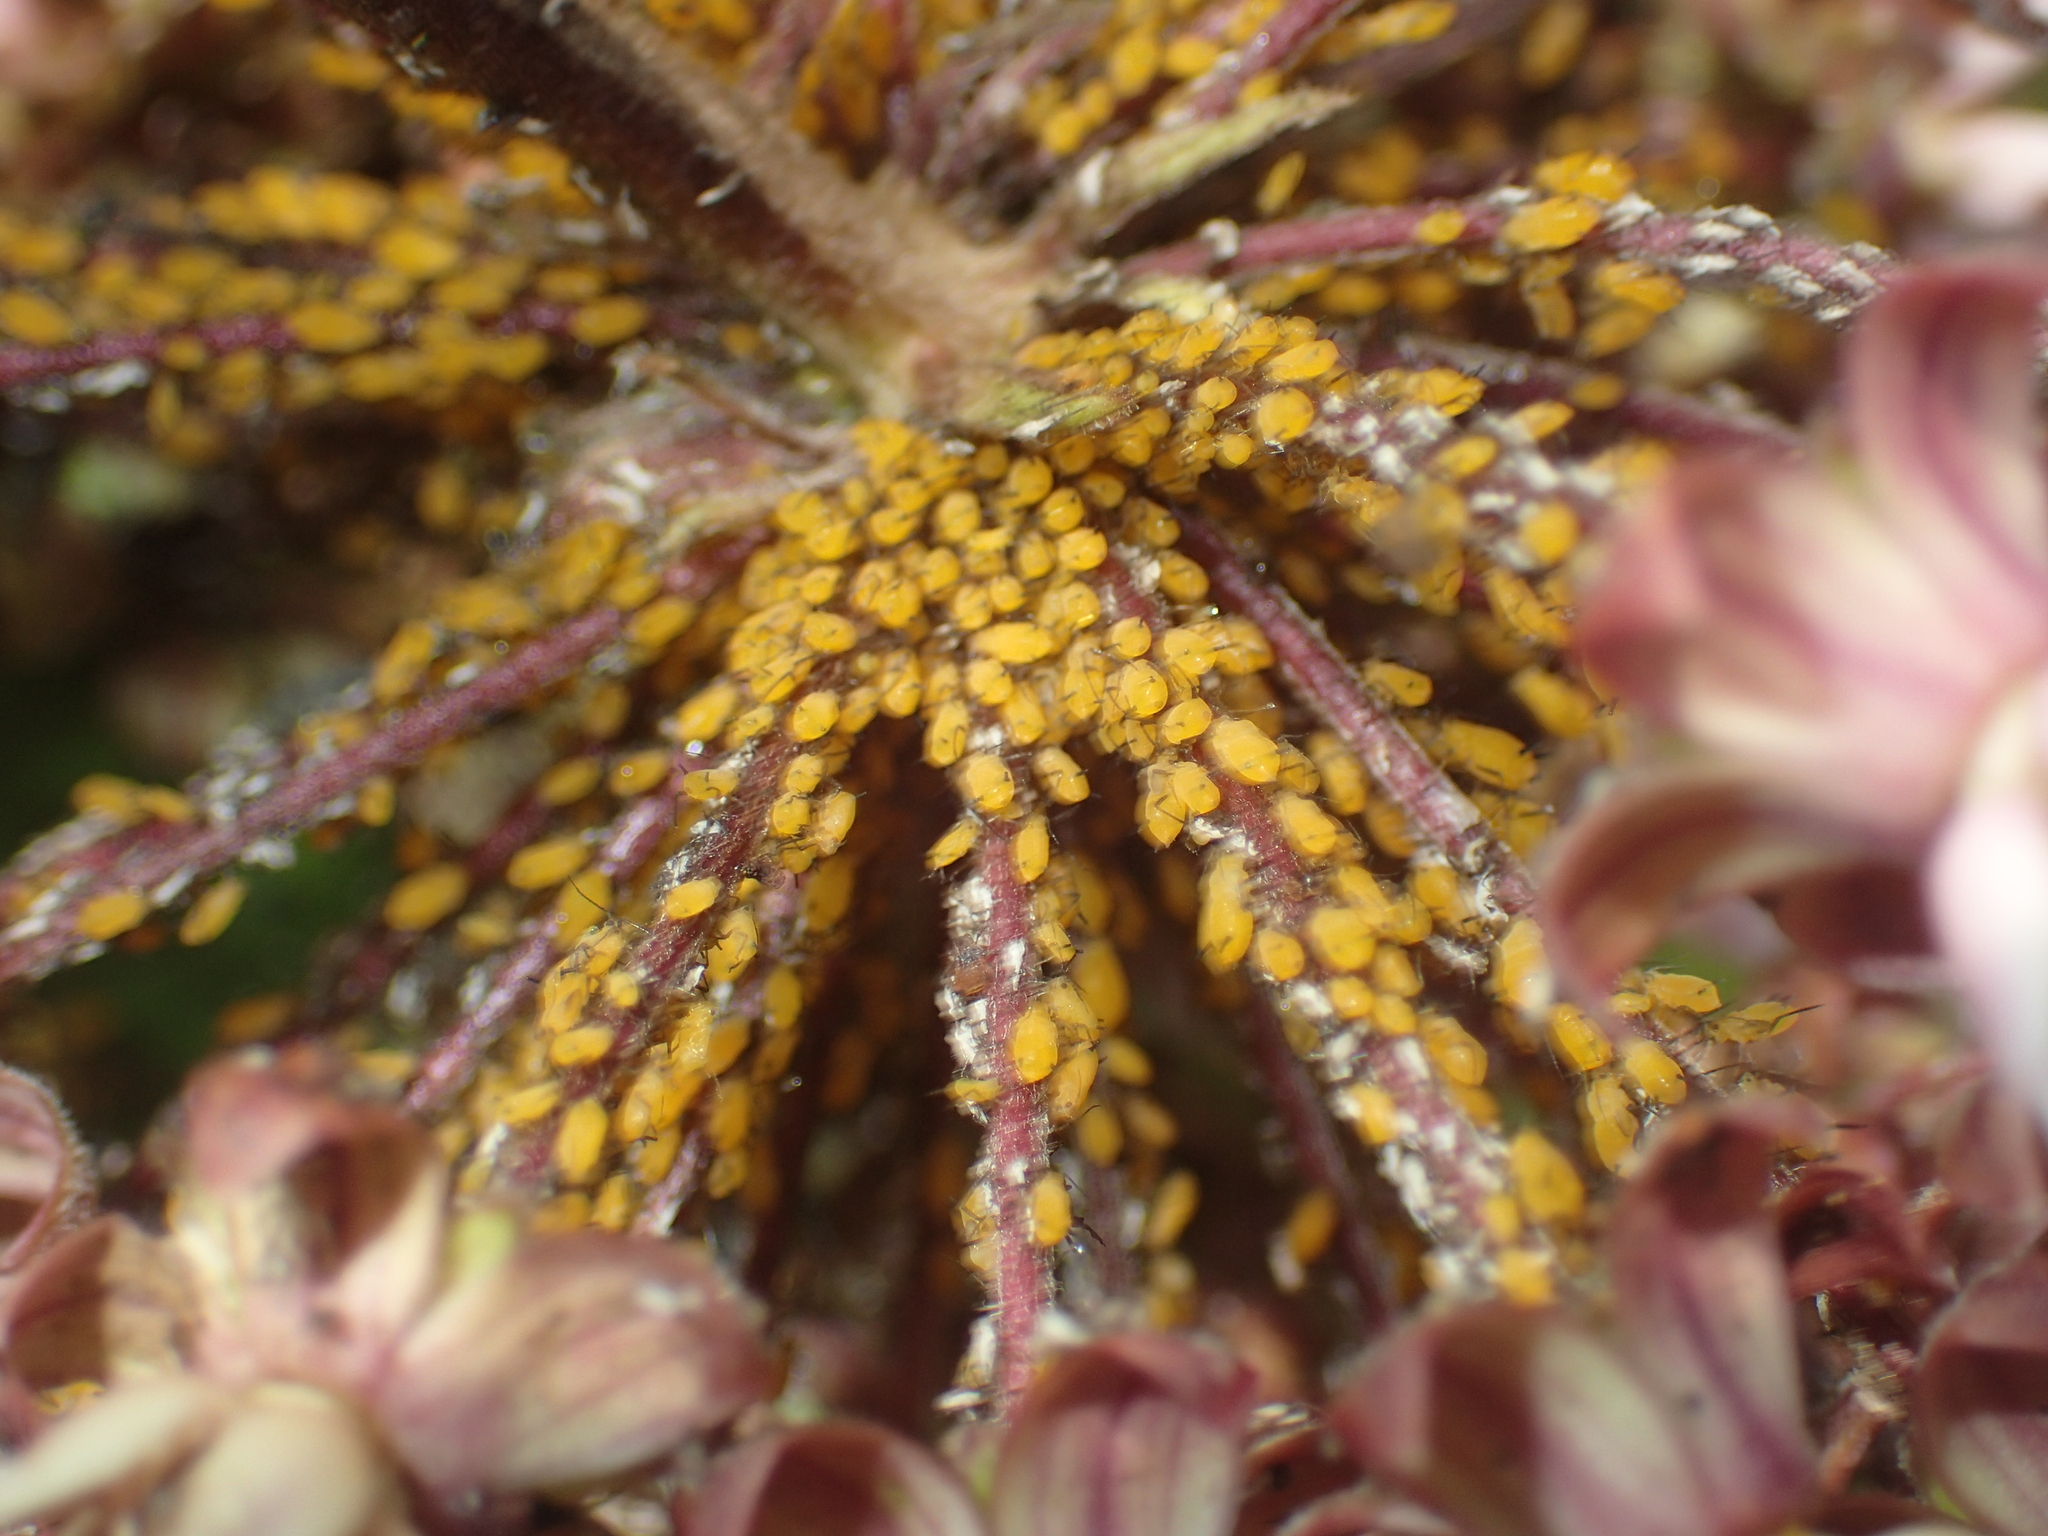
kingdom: Animalia
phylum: Arthropoda
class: Insecta
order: Hemiptera
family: Aphididae
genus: Aphis
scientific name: Aphis nerii
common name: Oleander aphid
